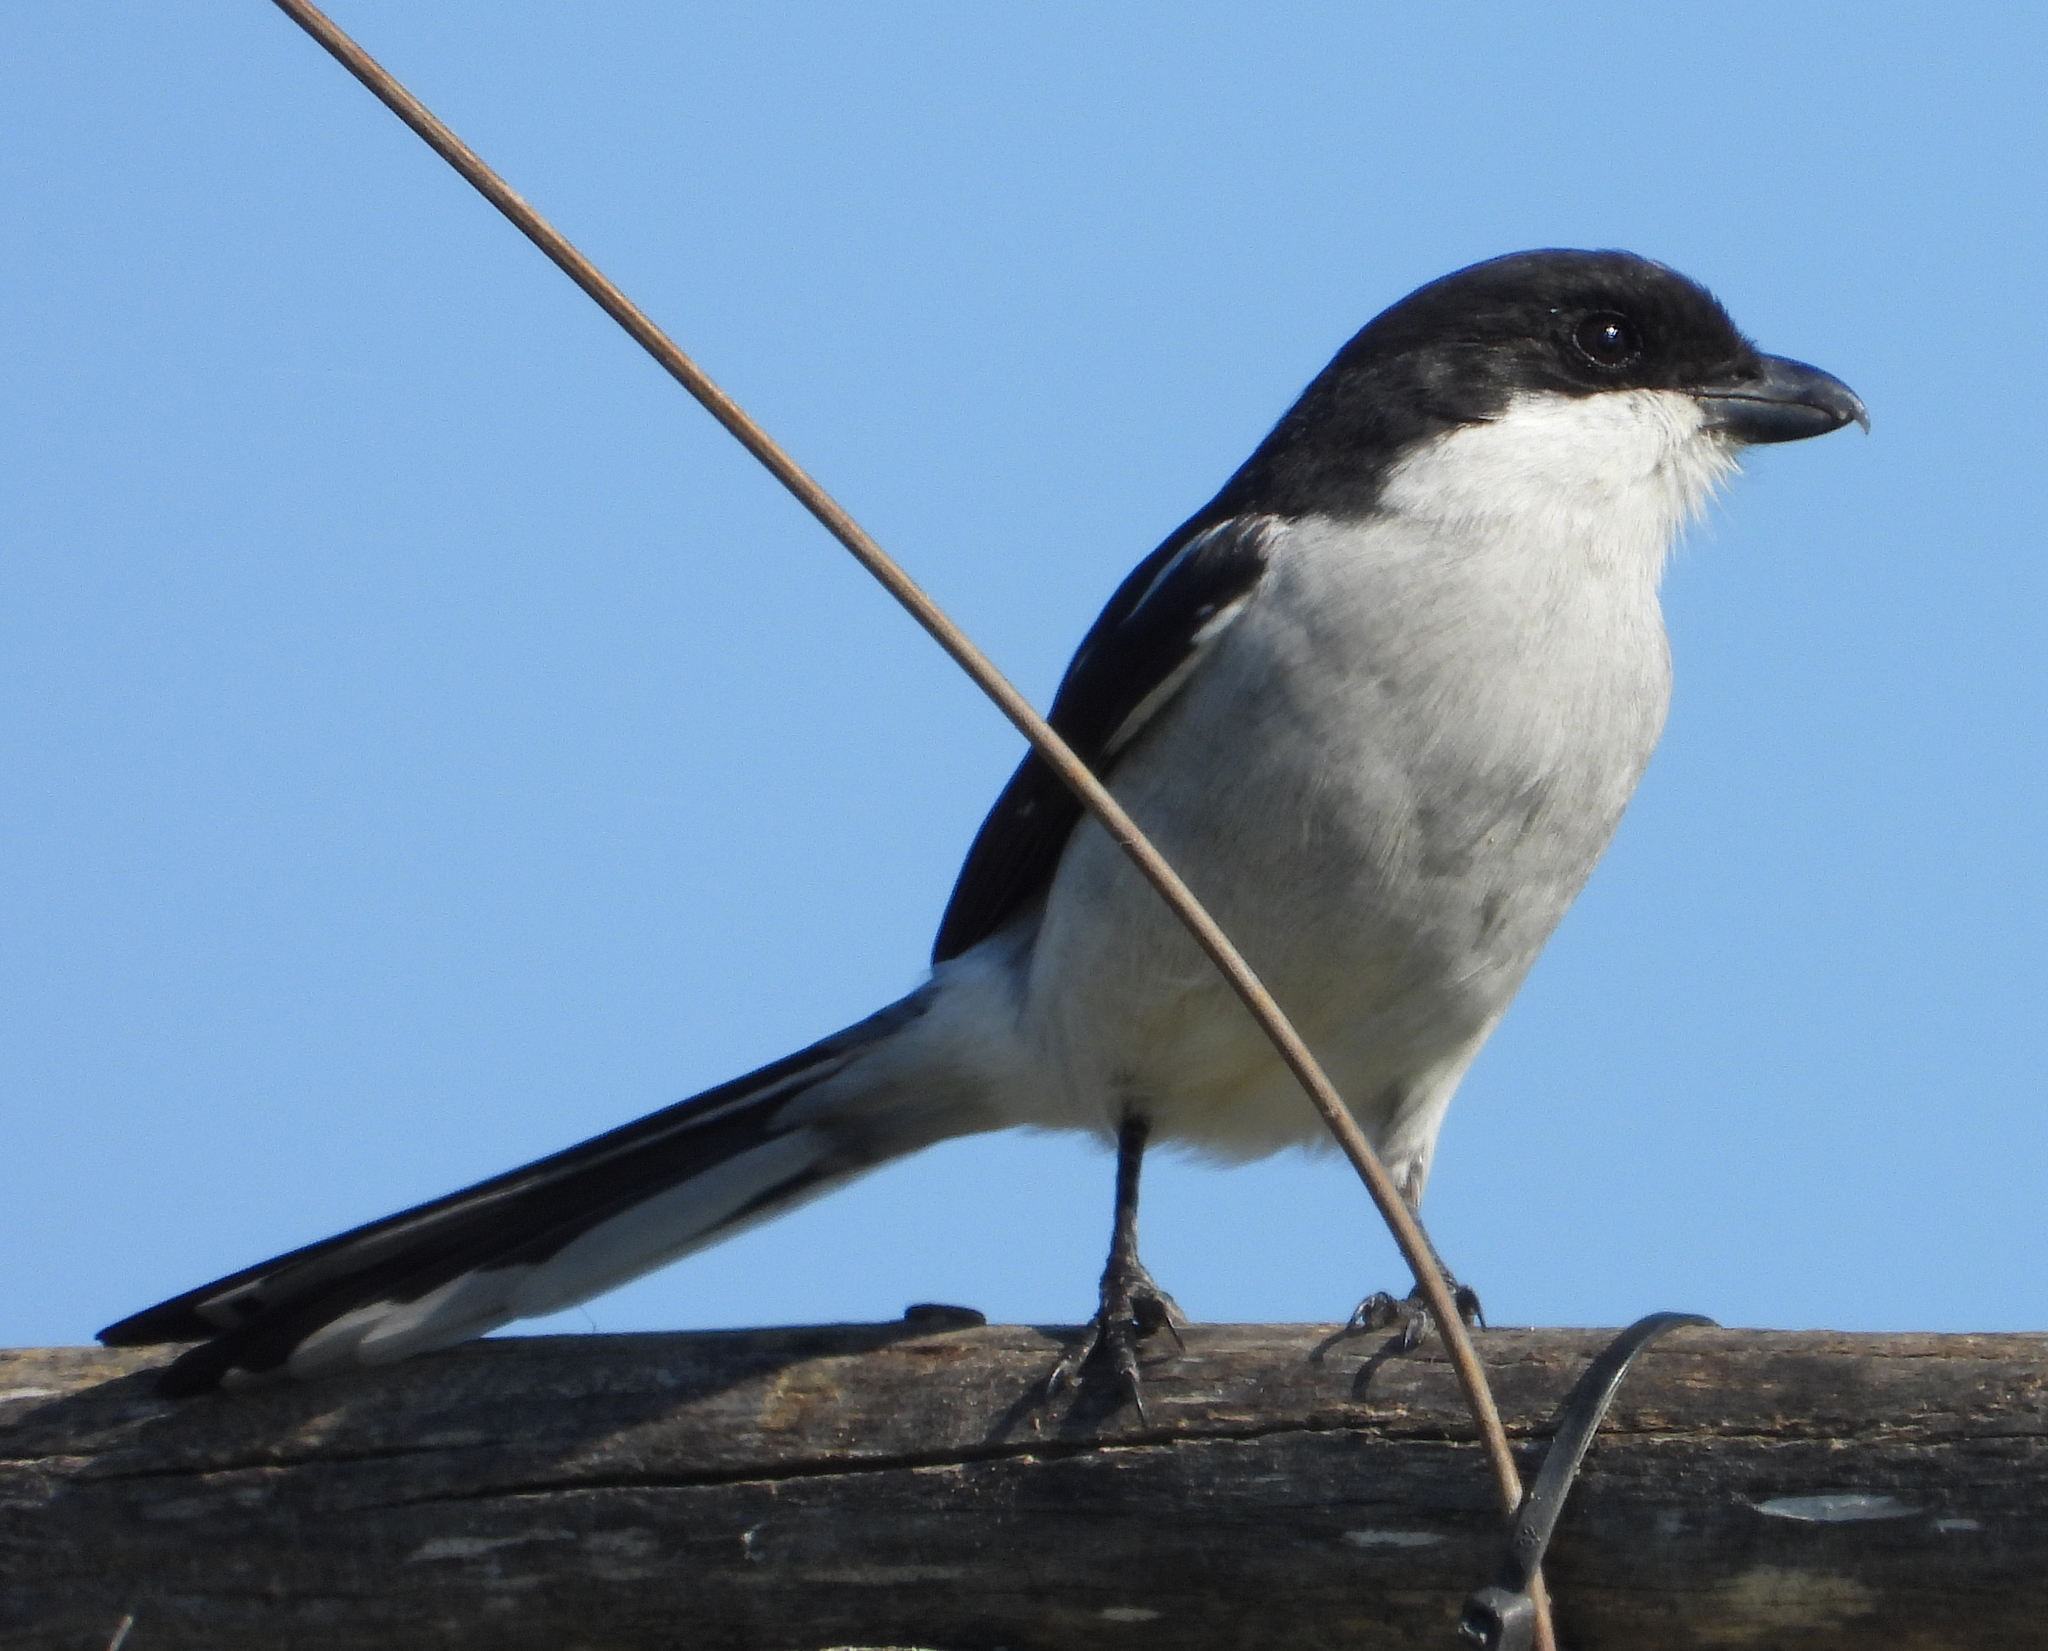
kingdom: Animalia
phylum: Chordata
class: Aves
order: Passeriformes
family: Laniidae
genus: Lanius
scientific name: Lanius collaris
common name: Southern fiscal
